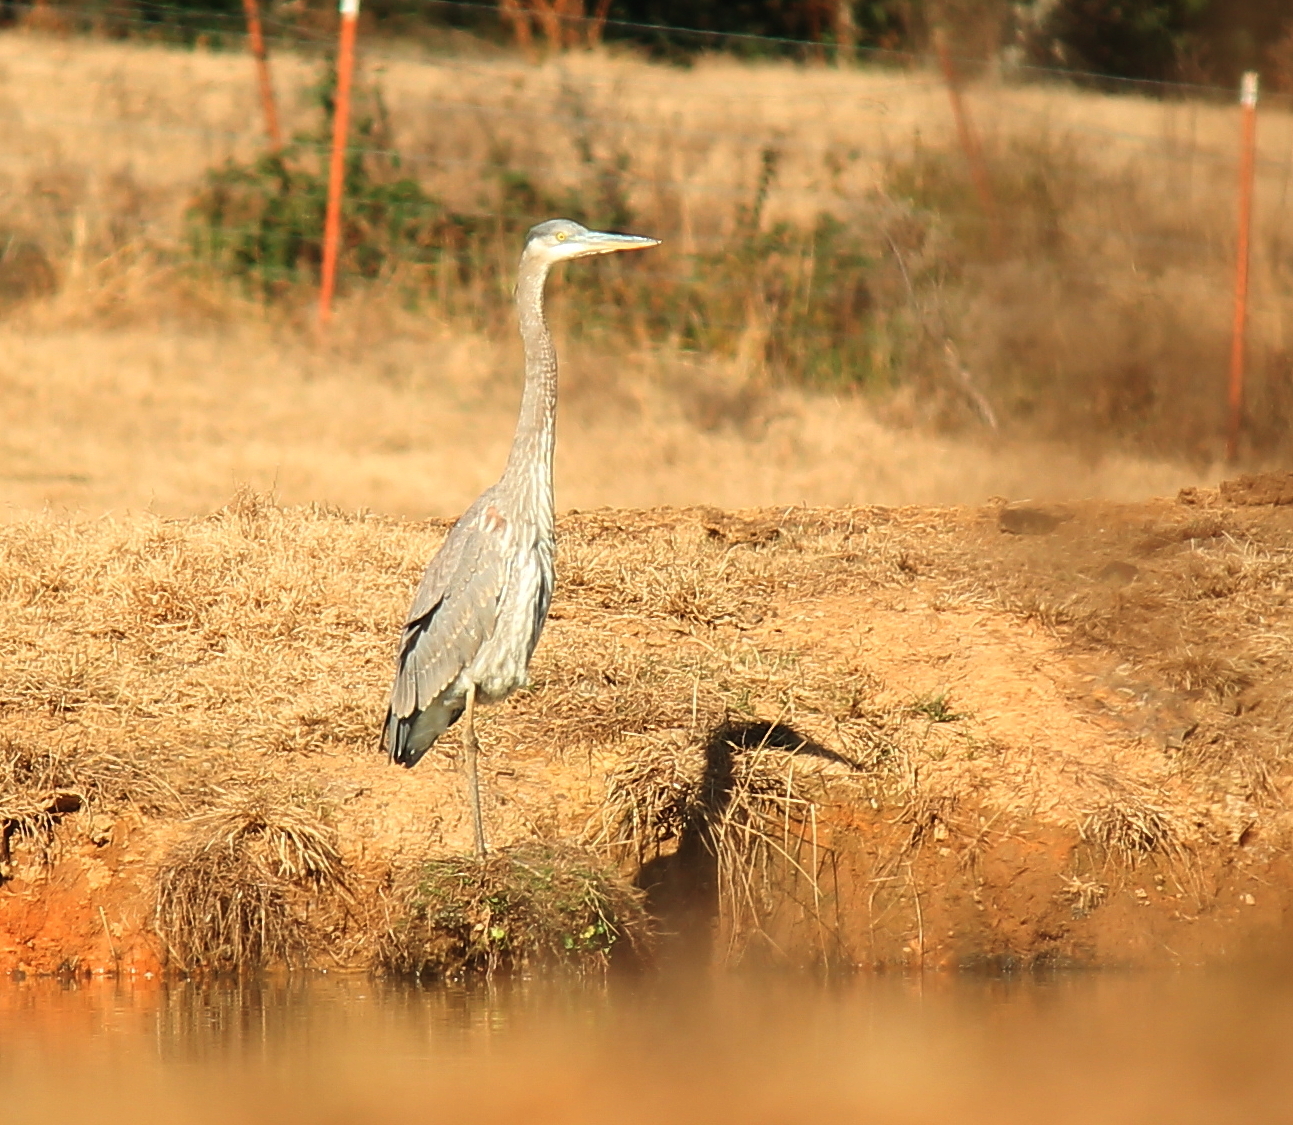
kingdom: Animalia
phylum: Chordata
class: Aves
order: Pelecaniformes
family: Ardeidae
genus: Ardea
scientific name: Ardea herodias
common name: Great blue heron
